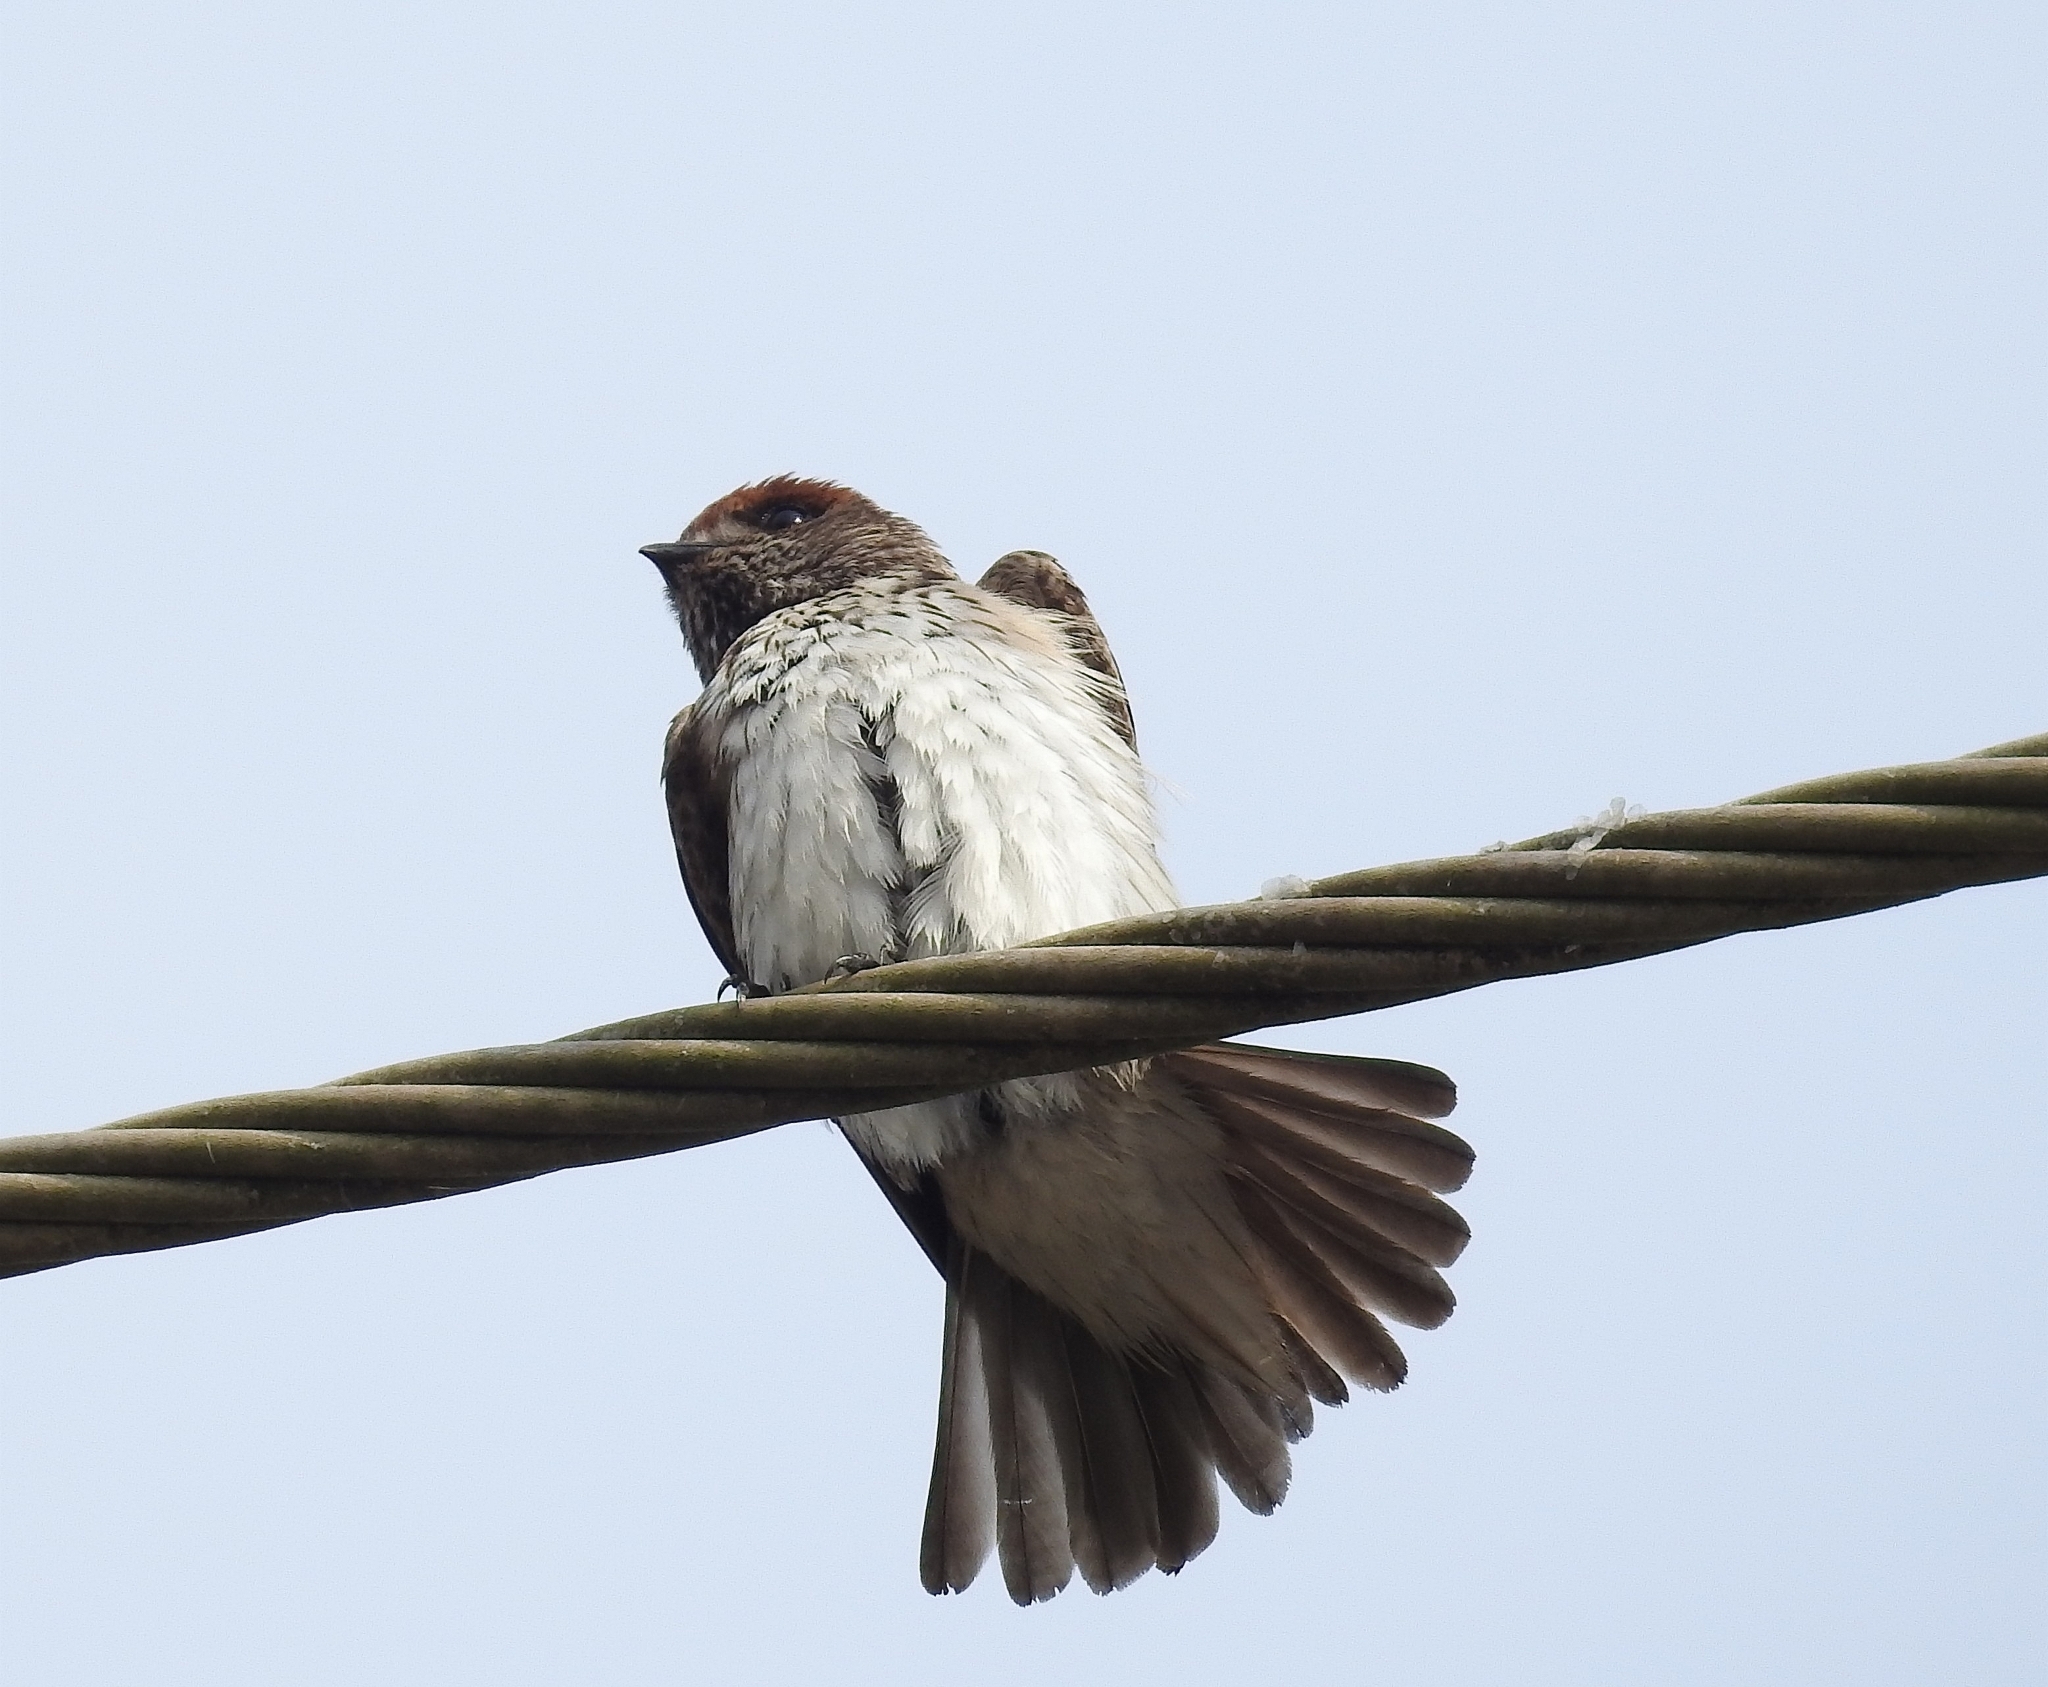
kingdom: Animalia
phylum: Chordata
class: Aves
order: Passeriformes
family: Hirundinidae
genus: Petrochelidon
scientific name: Petrochelidon fluvicola
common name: Streak-throated swallow
